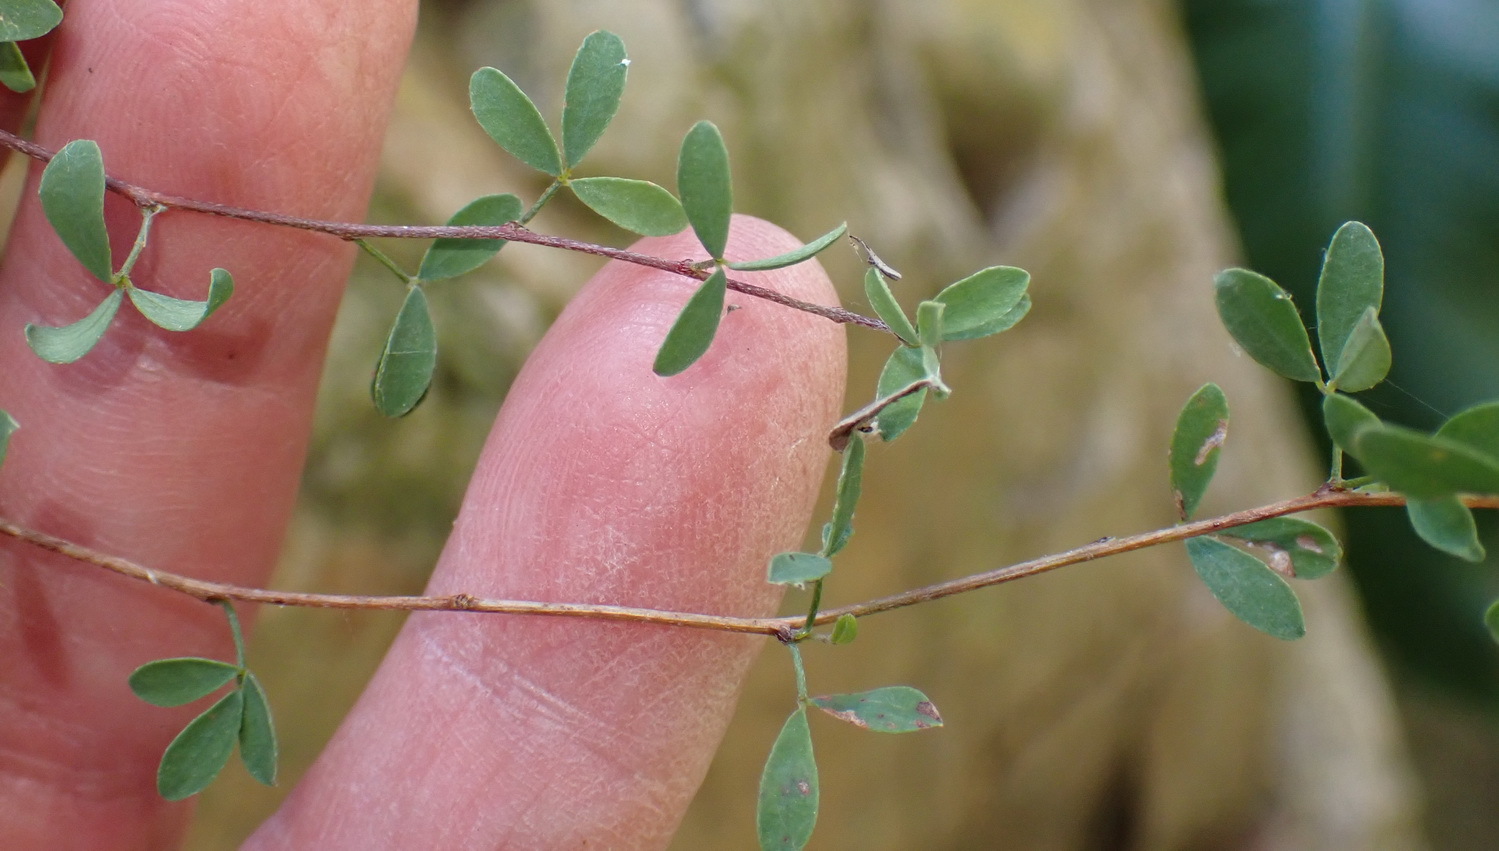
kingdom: Plantae
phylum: Tracheophyta
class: Magnoliopsida
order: Fabales
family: Fabaceae
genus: Indigofera
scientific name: Indigofera denudata
